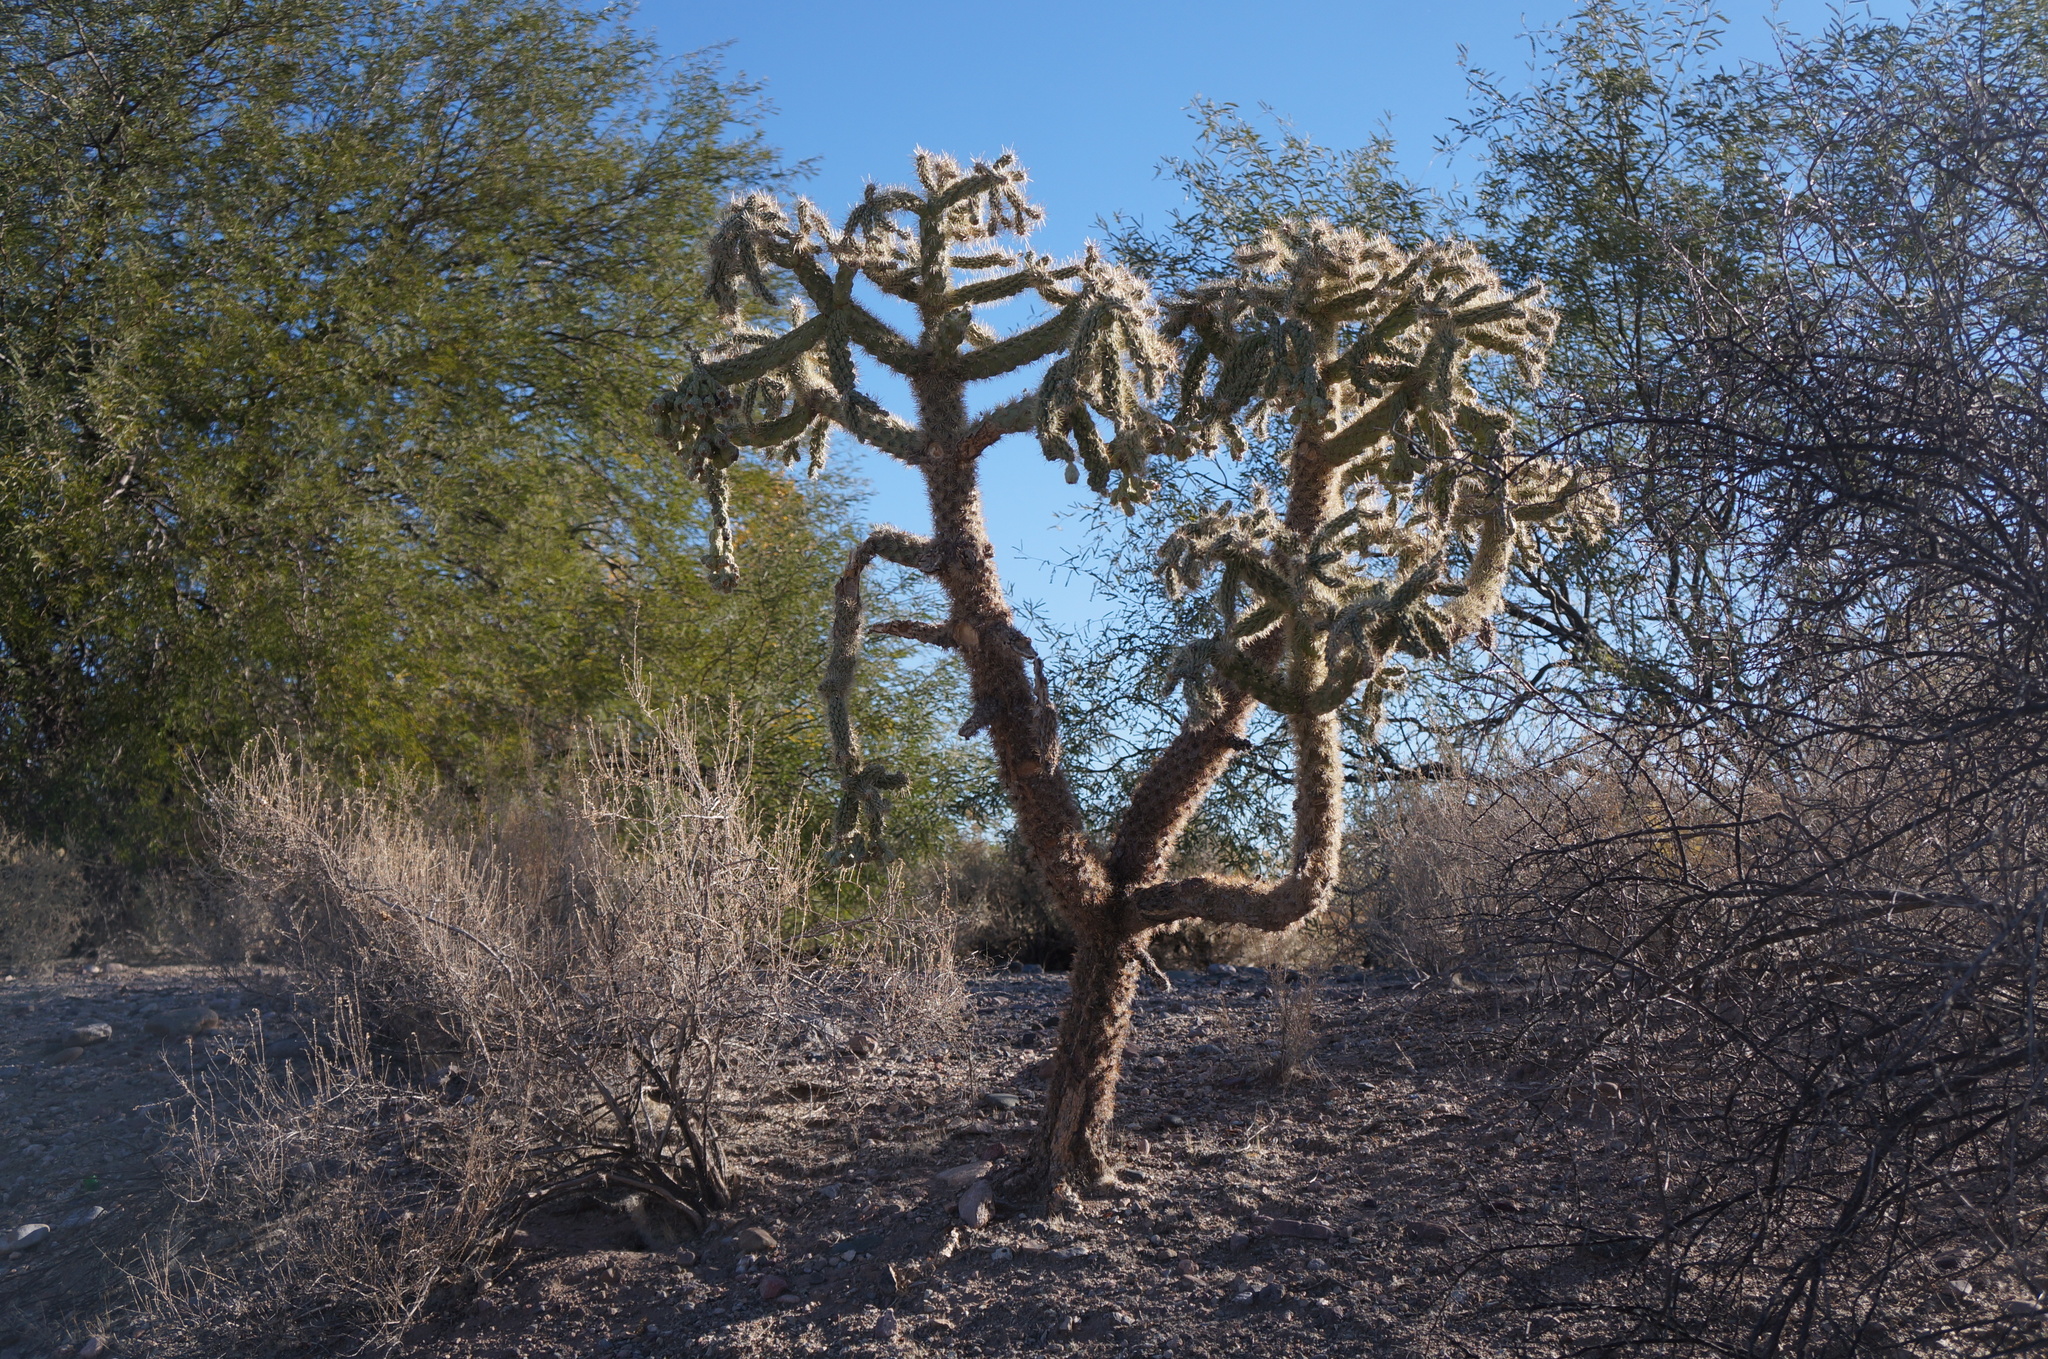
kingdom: Plantae
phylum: Tracheophyta
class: Magnoliopsida
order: Caryophyllales
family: Cactaceae
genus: Cylindropuntia
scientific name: Cylindropuntia fulgida
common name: Jumping cholla
